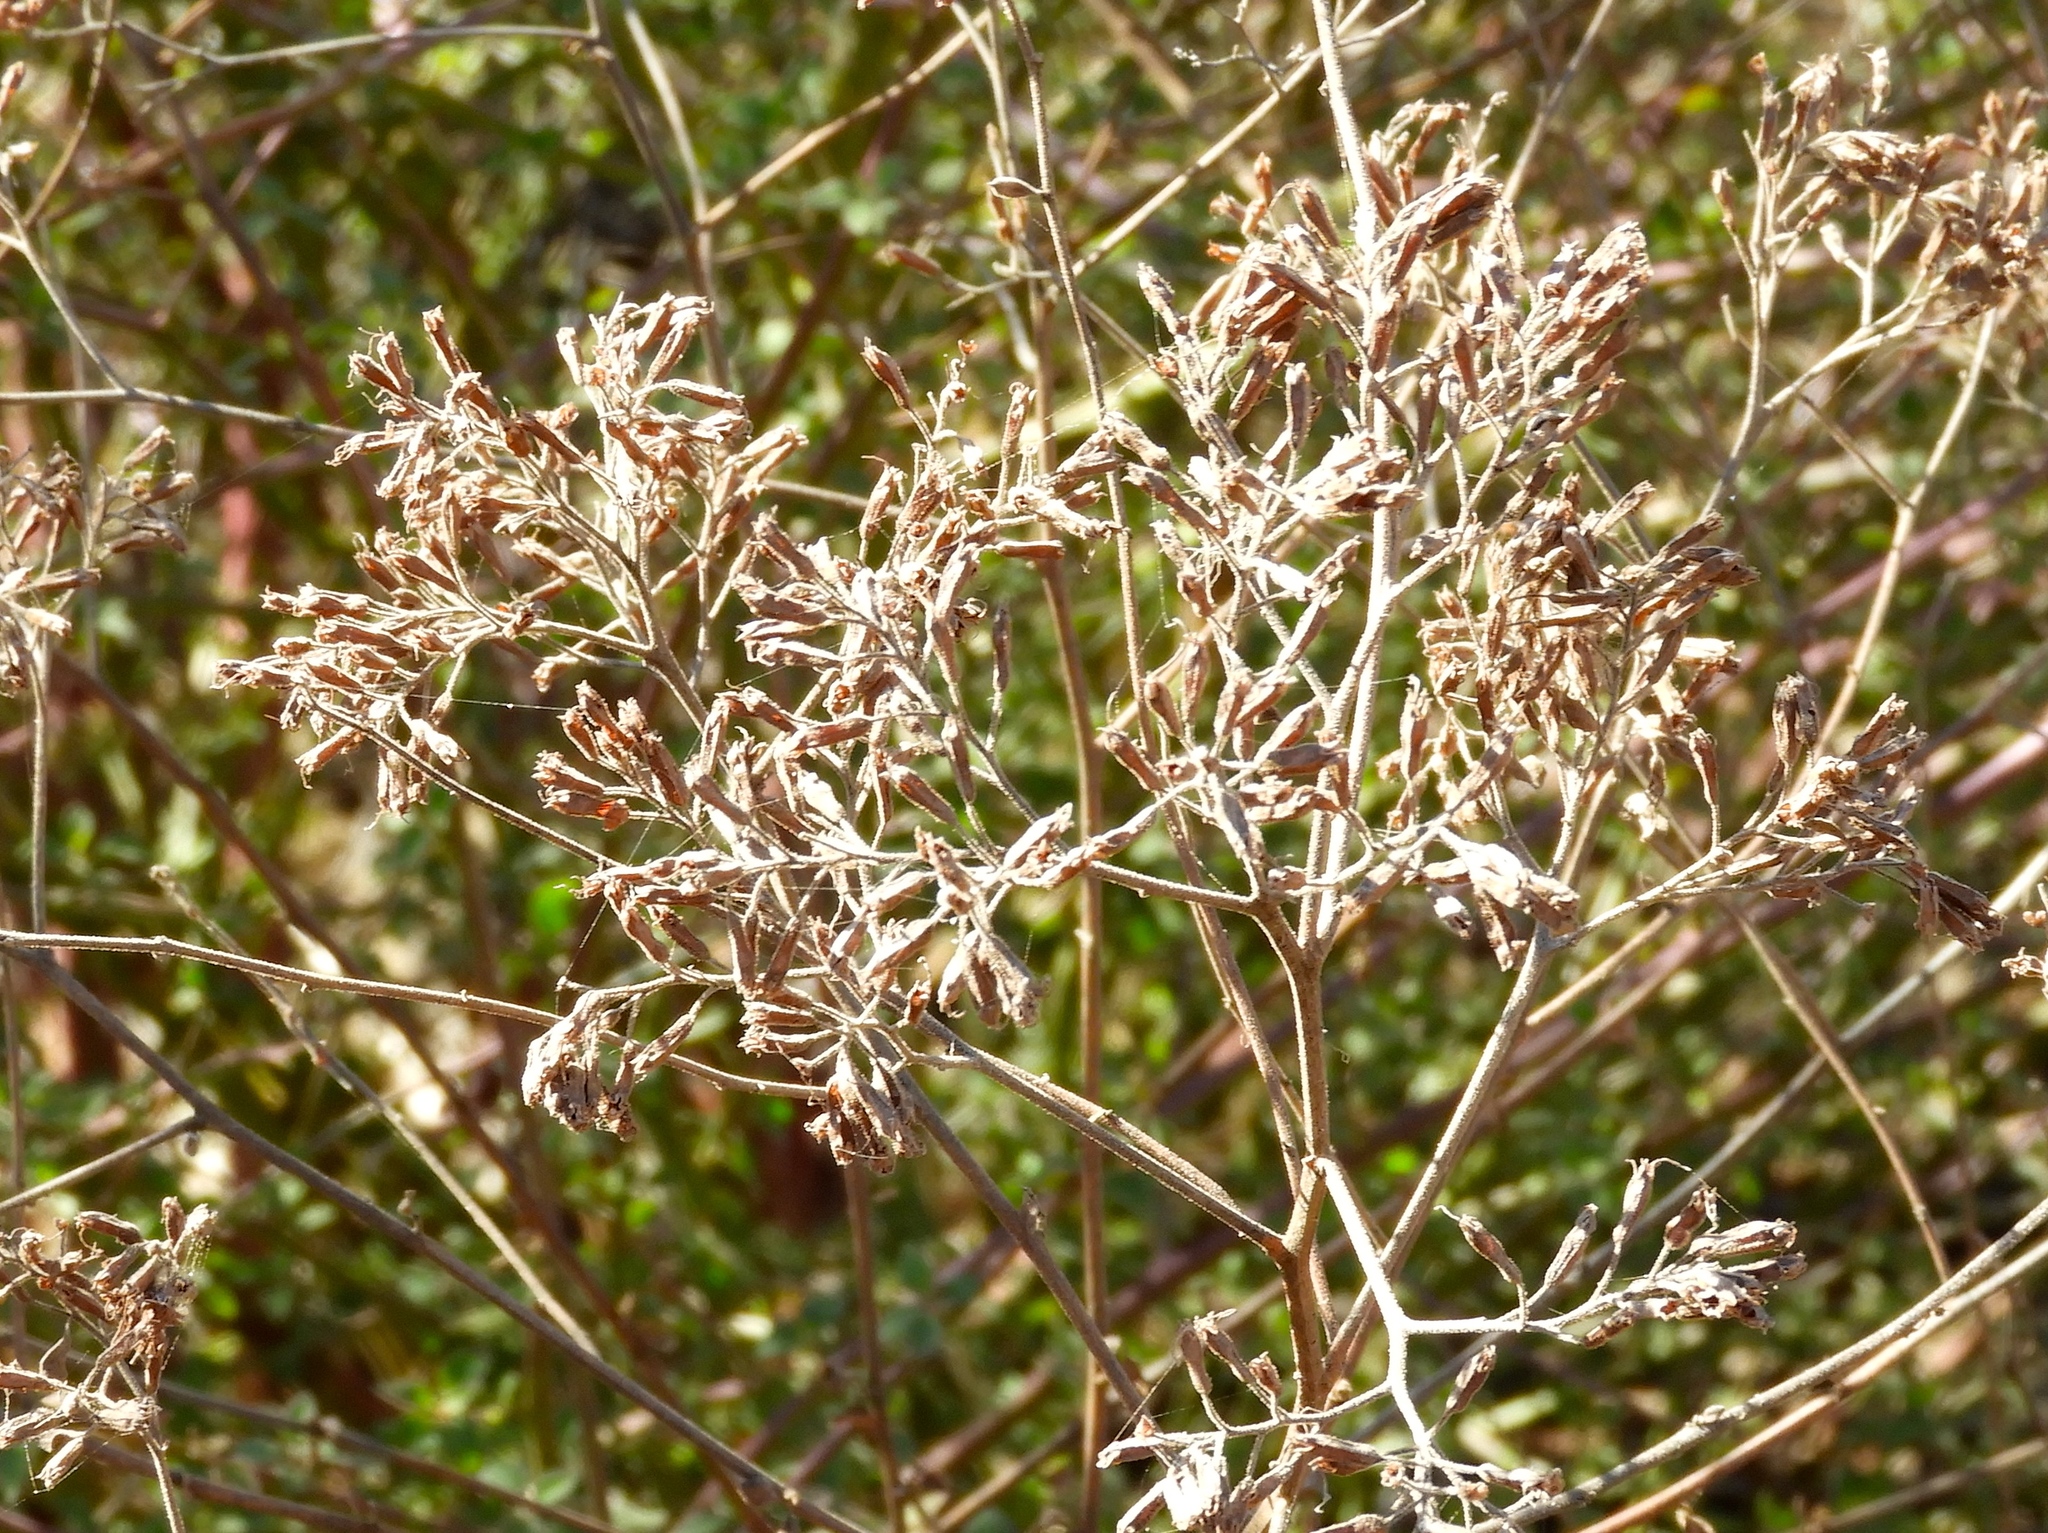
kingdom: Plantae
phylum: Tracheophyta
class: Magnoliopsida
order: Caryophyllales
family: Nyctaginaceae
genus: Salpianthus
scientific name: Salpianthus arenarius
